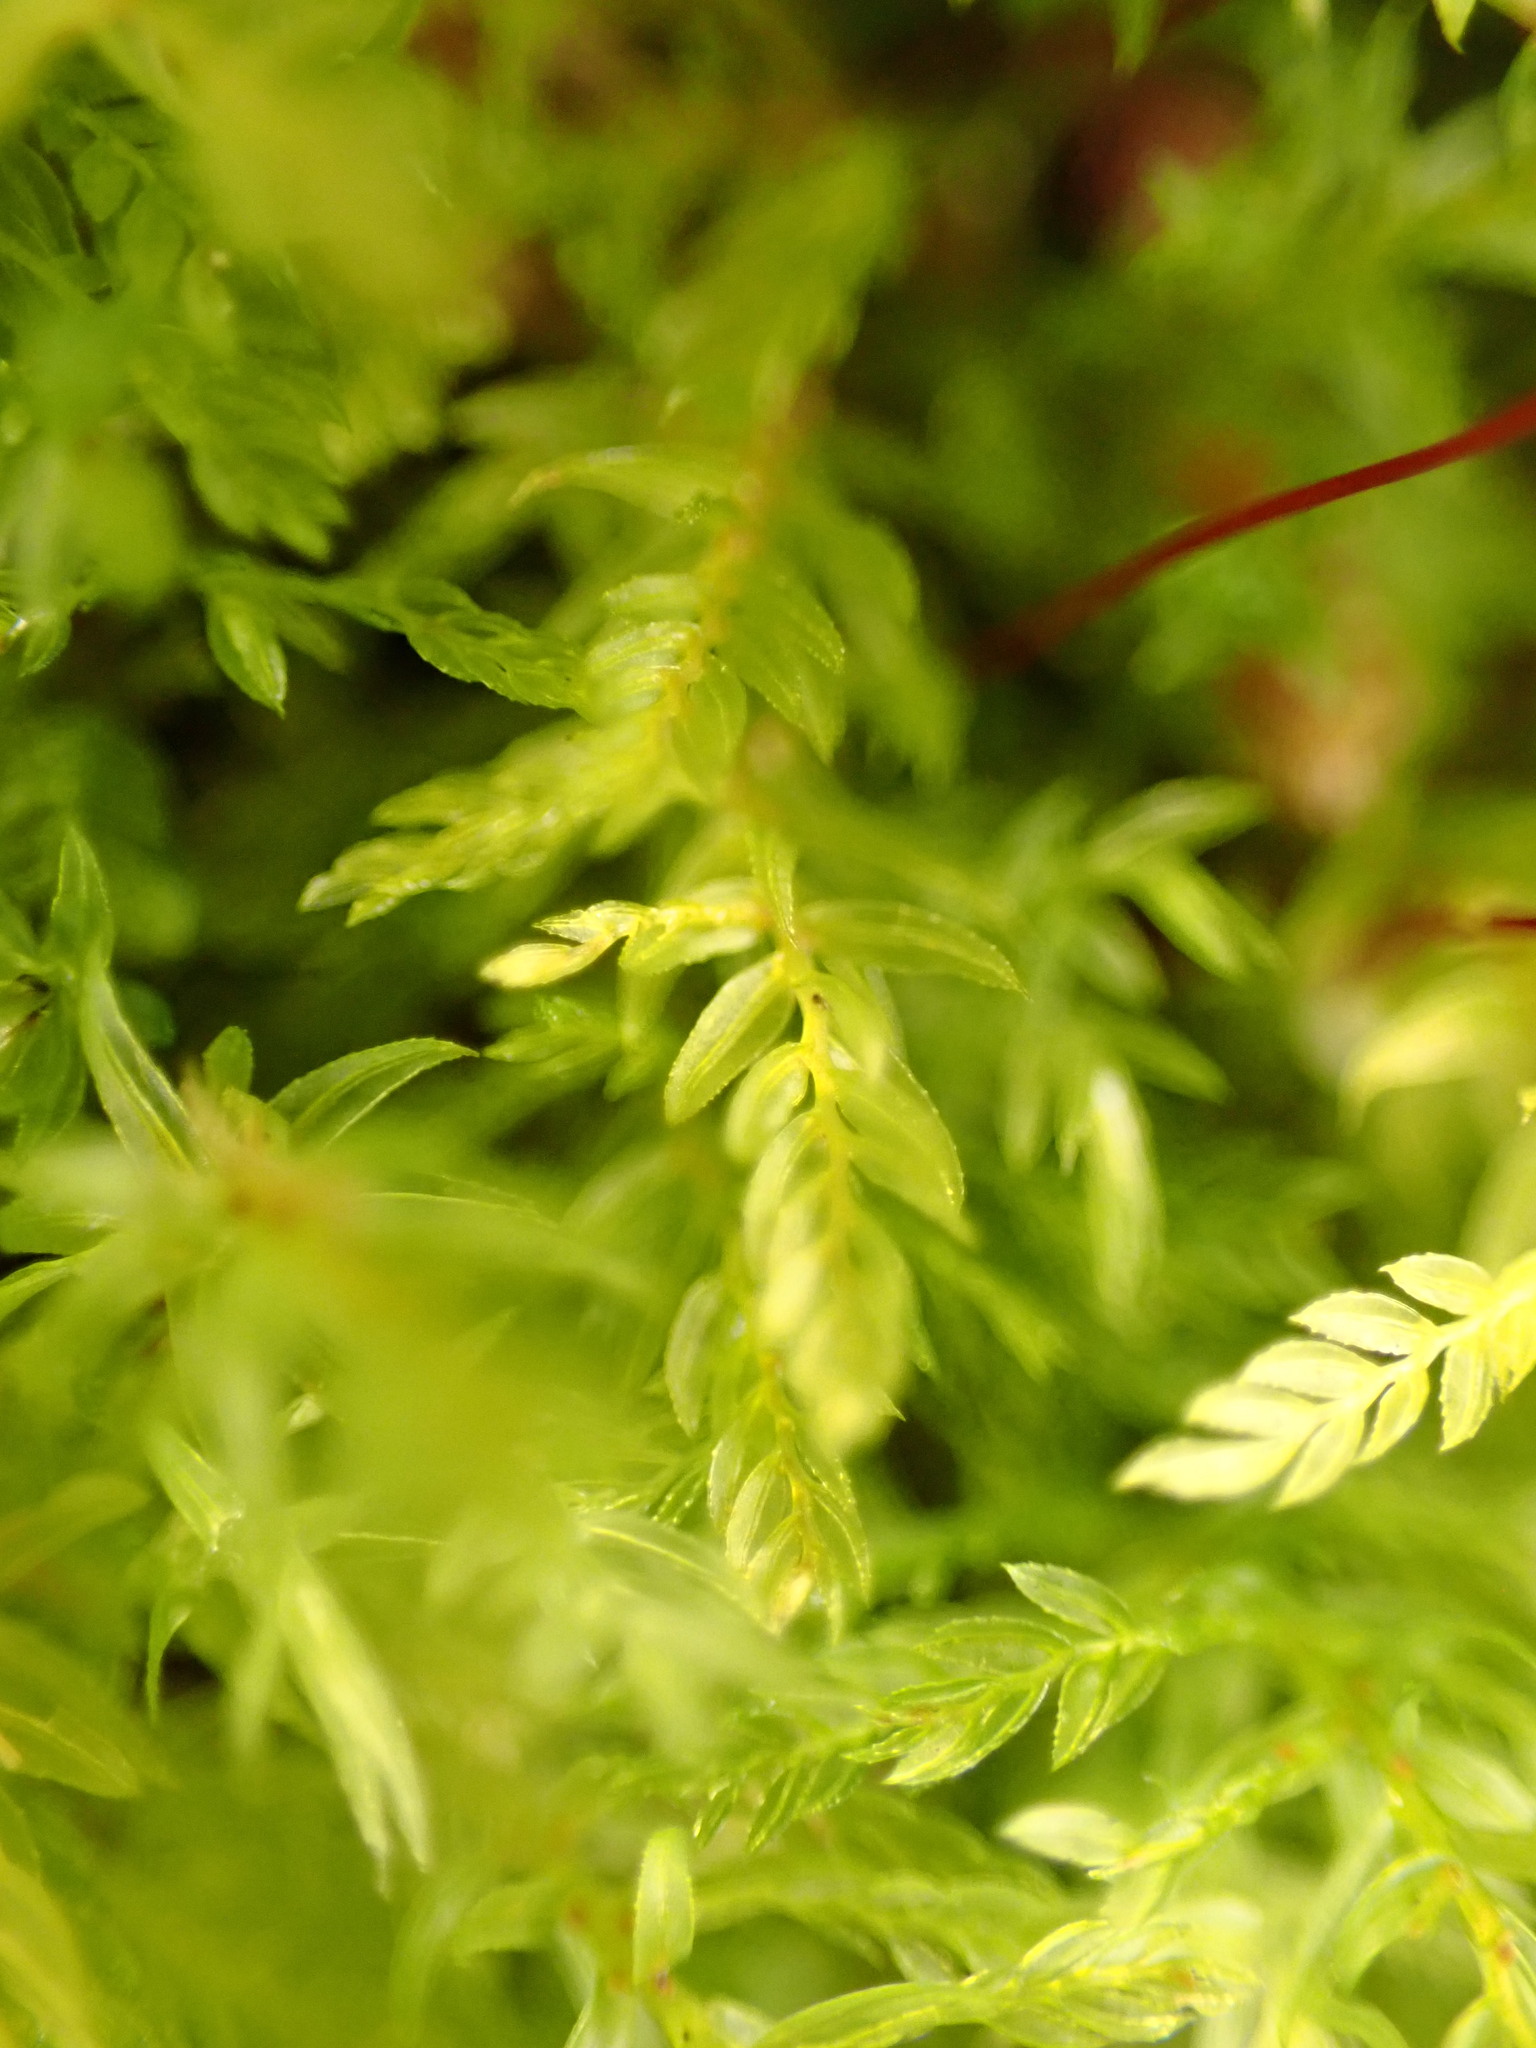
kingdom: Plantae
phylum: Bryophyta
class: Bryopsida
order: Aulacomniales
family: Aulacomniaceae
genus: Hymenodontopsis
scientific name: Hymenodontopsis bifaria
